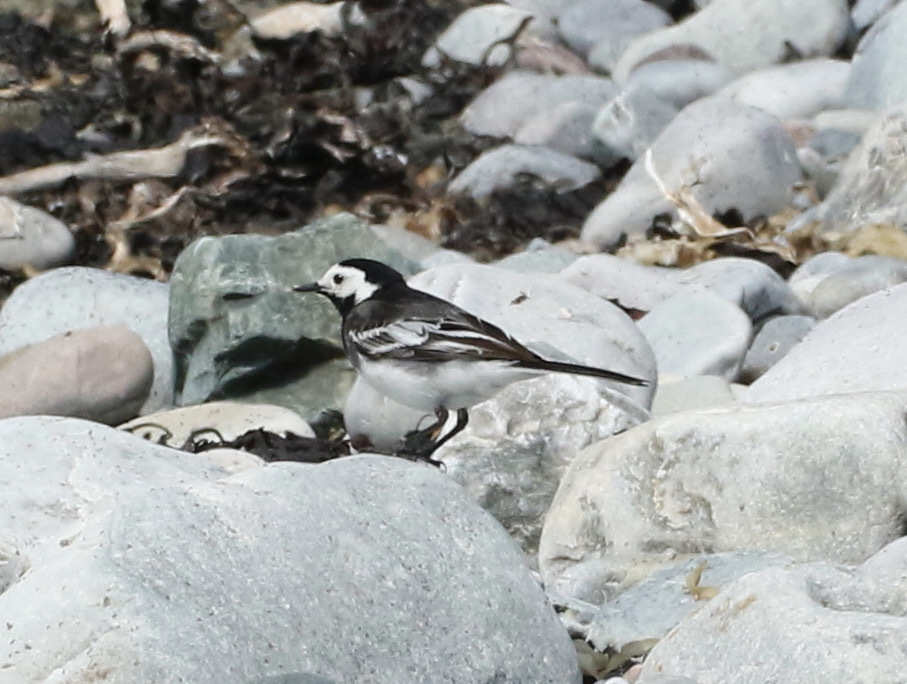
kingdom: Animalia
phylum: Chordata
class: Aves
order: Passeriformes
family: Motacillidae
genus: Motacilla
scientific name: Motacilla alba
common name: White wagtail
